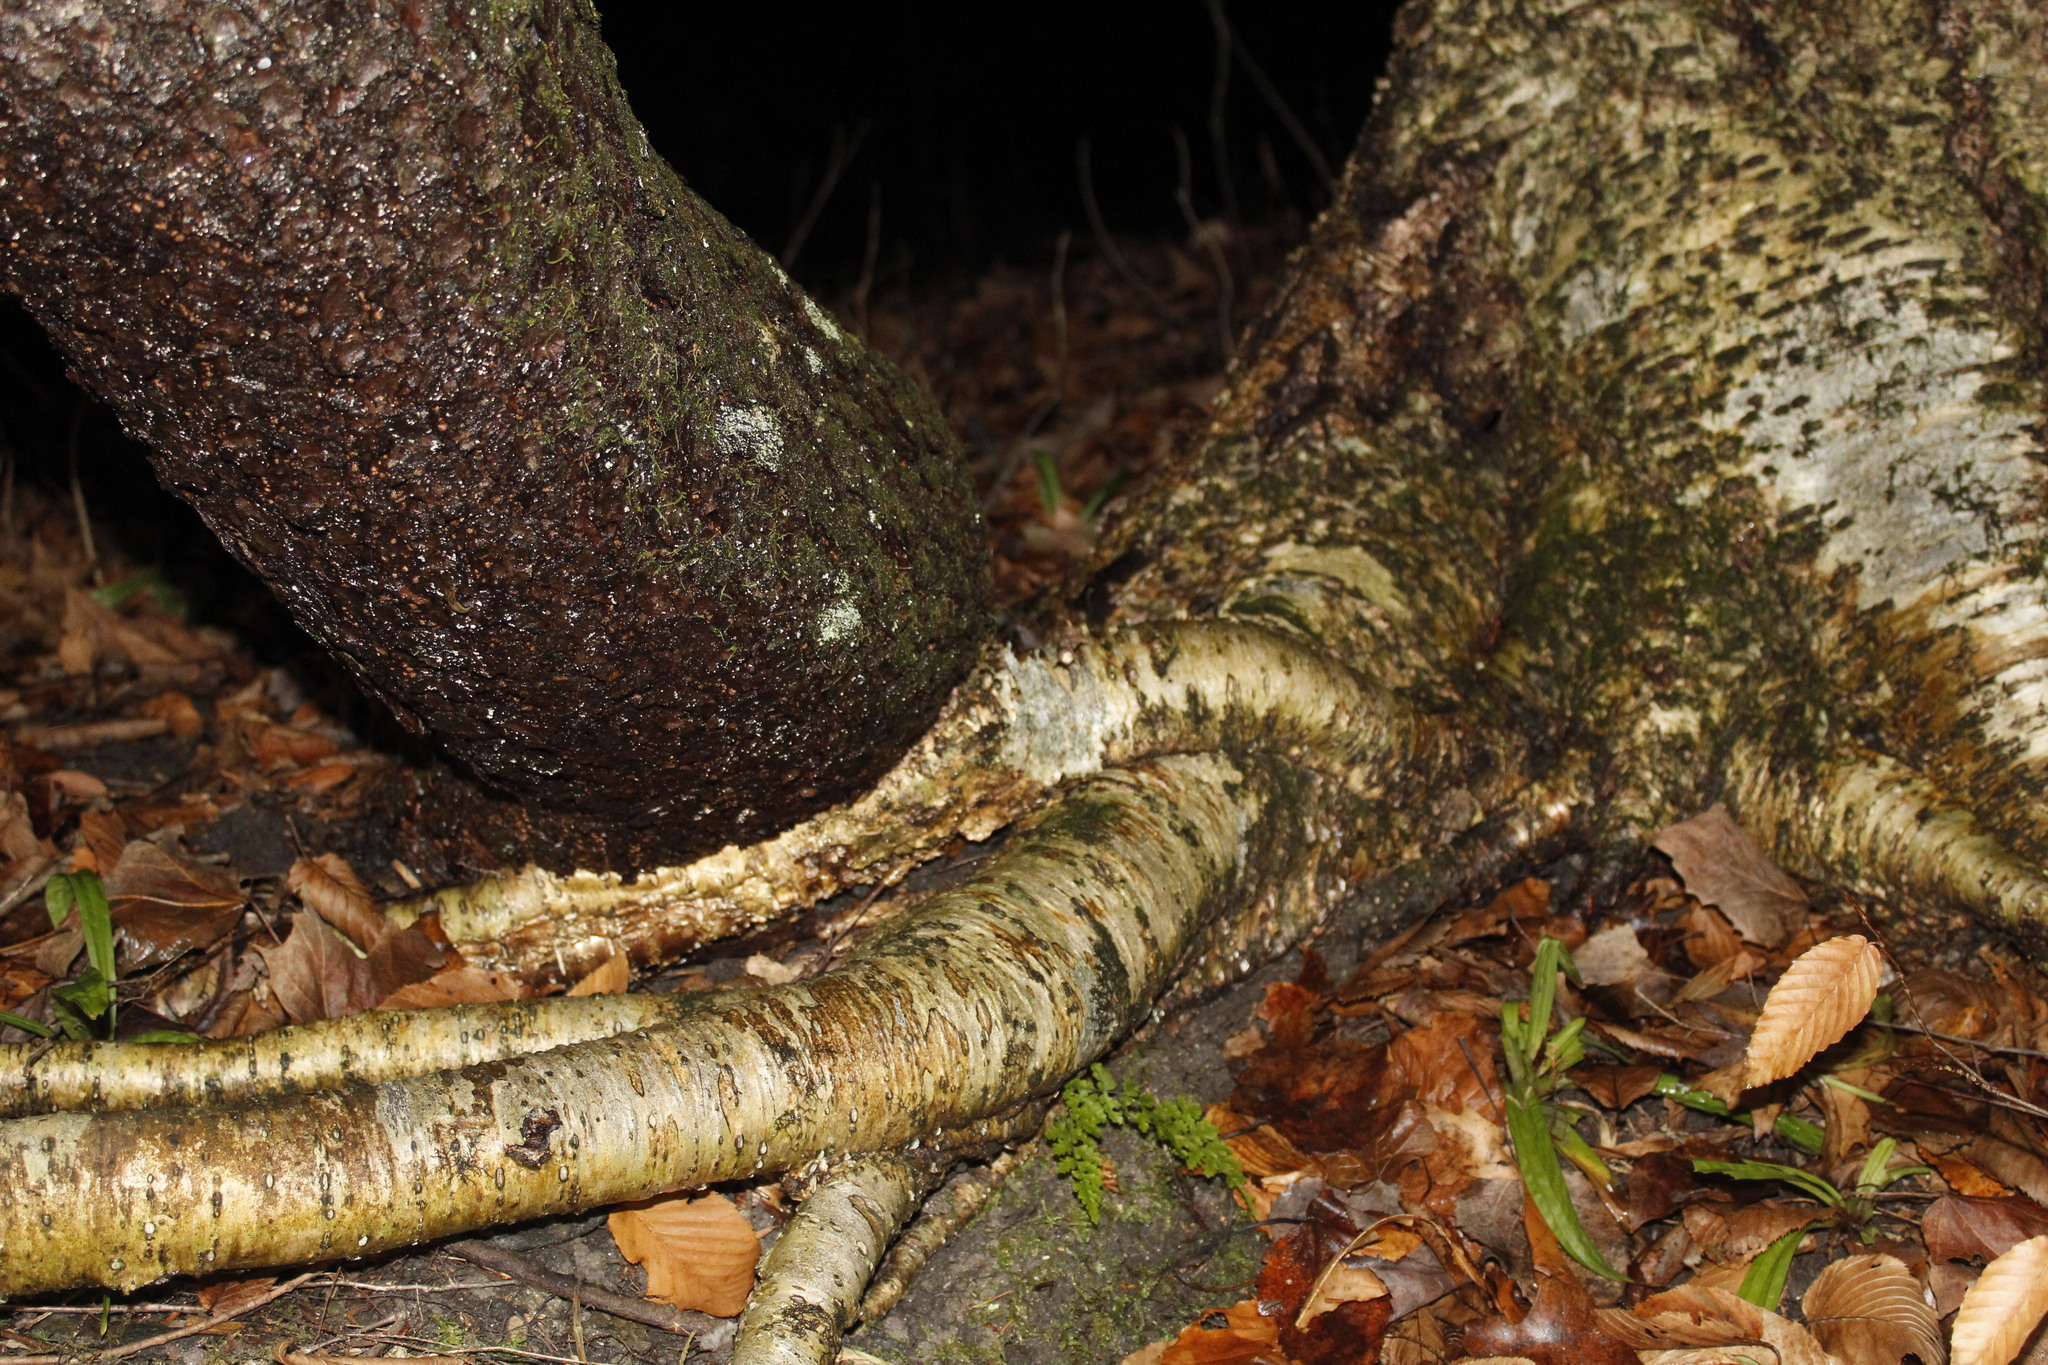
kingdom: Plantae
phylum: Tracheophyta
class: Magnoliopsida
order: Fagales
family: Betulaceae
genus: Betula
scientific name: Betula alleghaniensis
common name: Yellow birch
